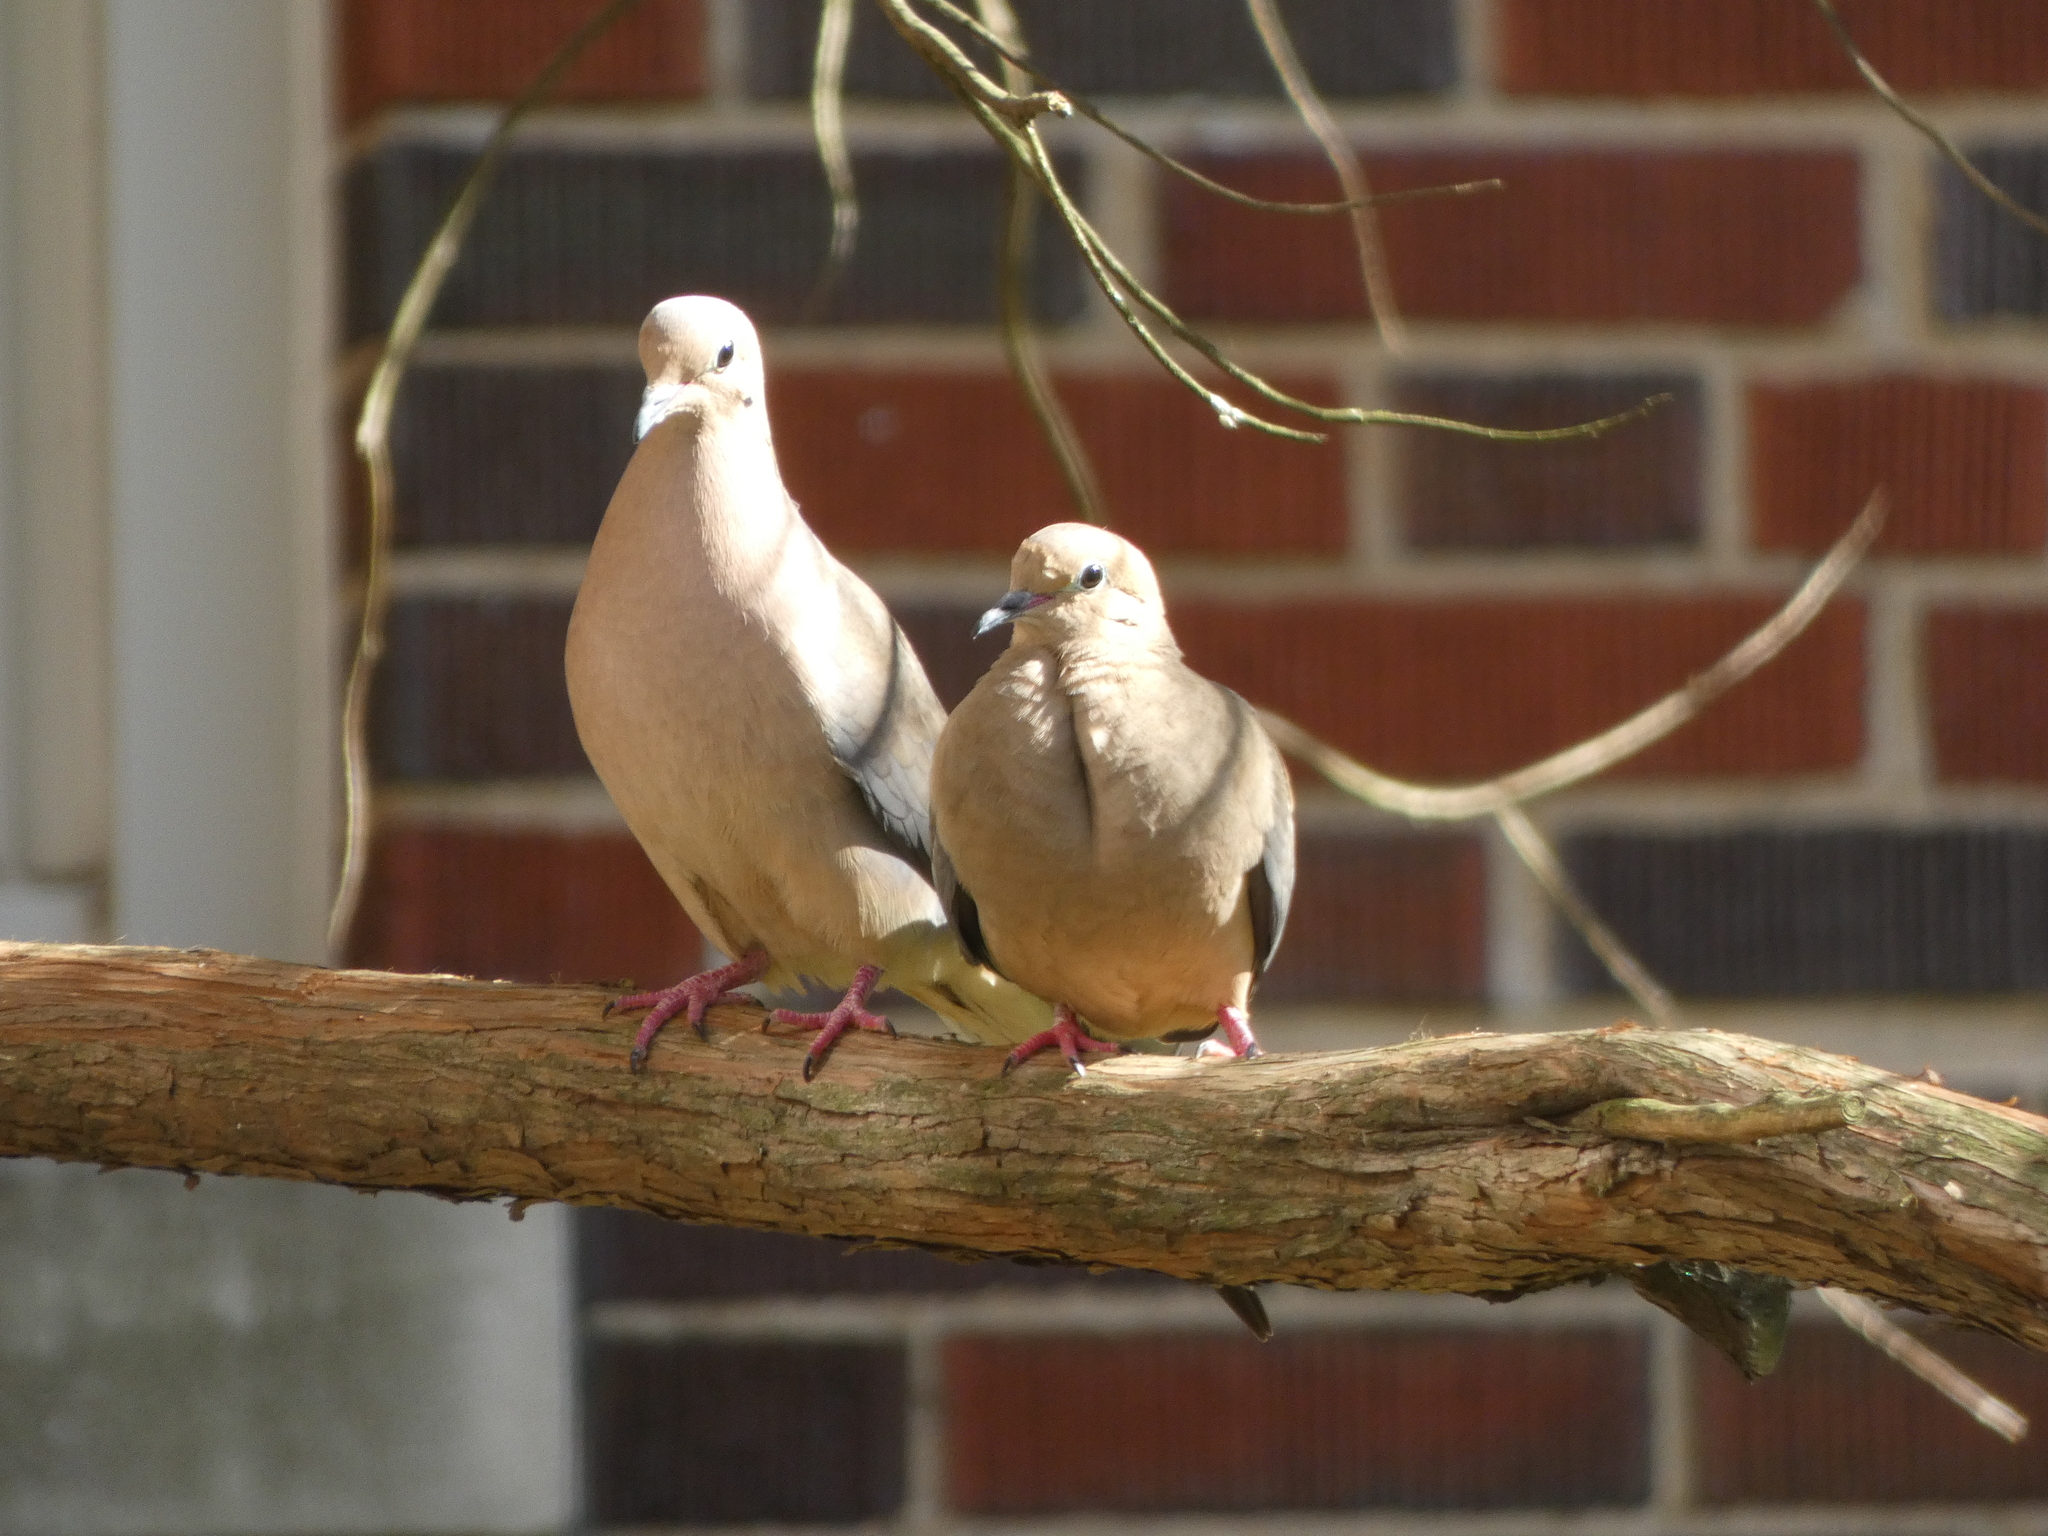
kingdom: Animalia
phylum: Chordata
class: Aves
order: Columbiformes
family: Columbidae
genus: Zenaida
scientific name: Zenaida macroura
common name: Mourning dove
